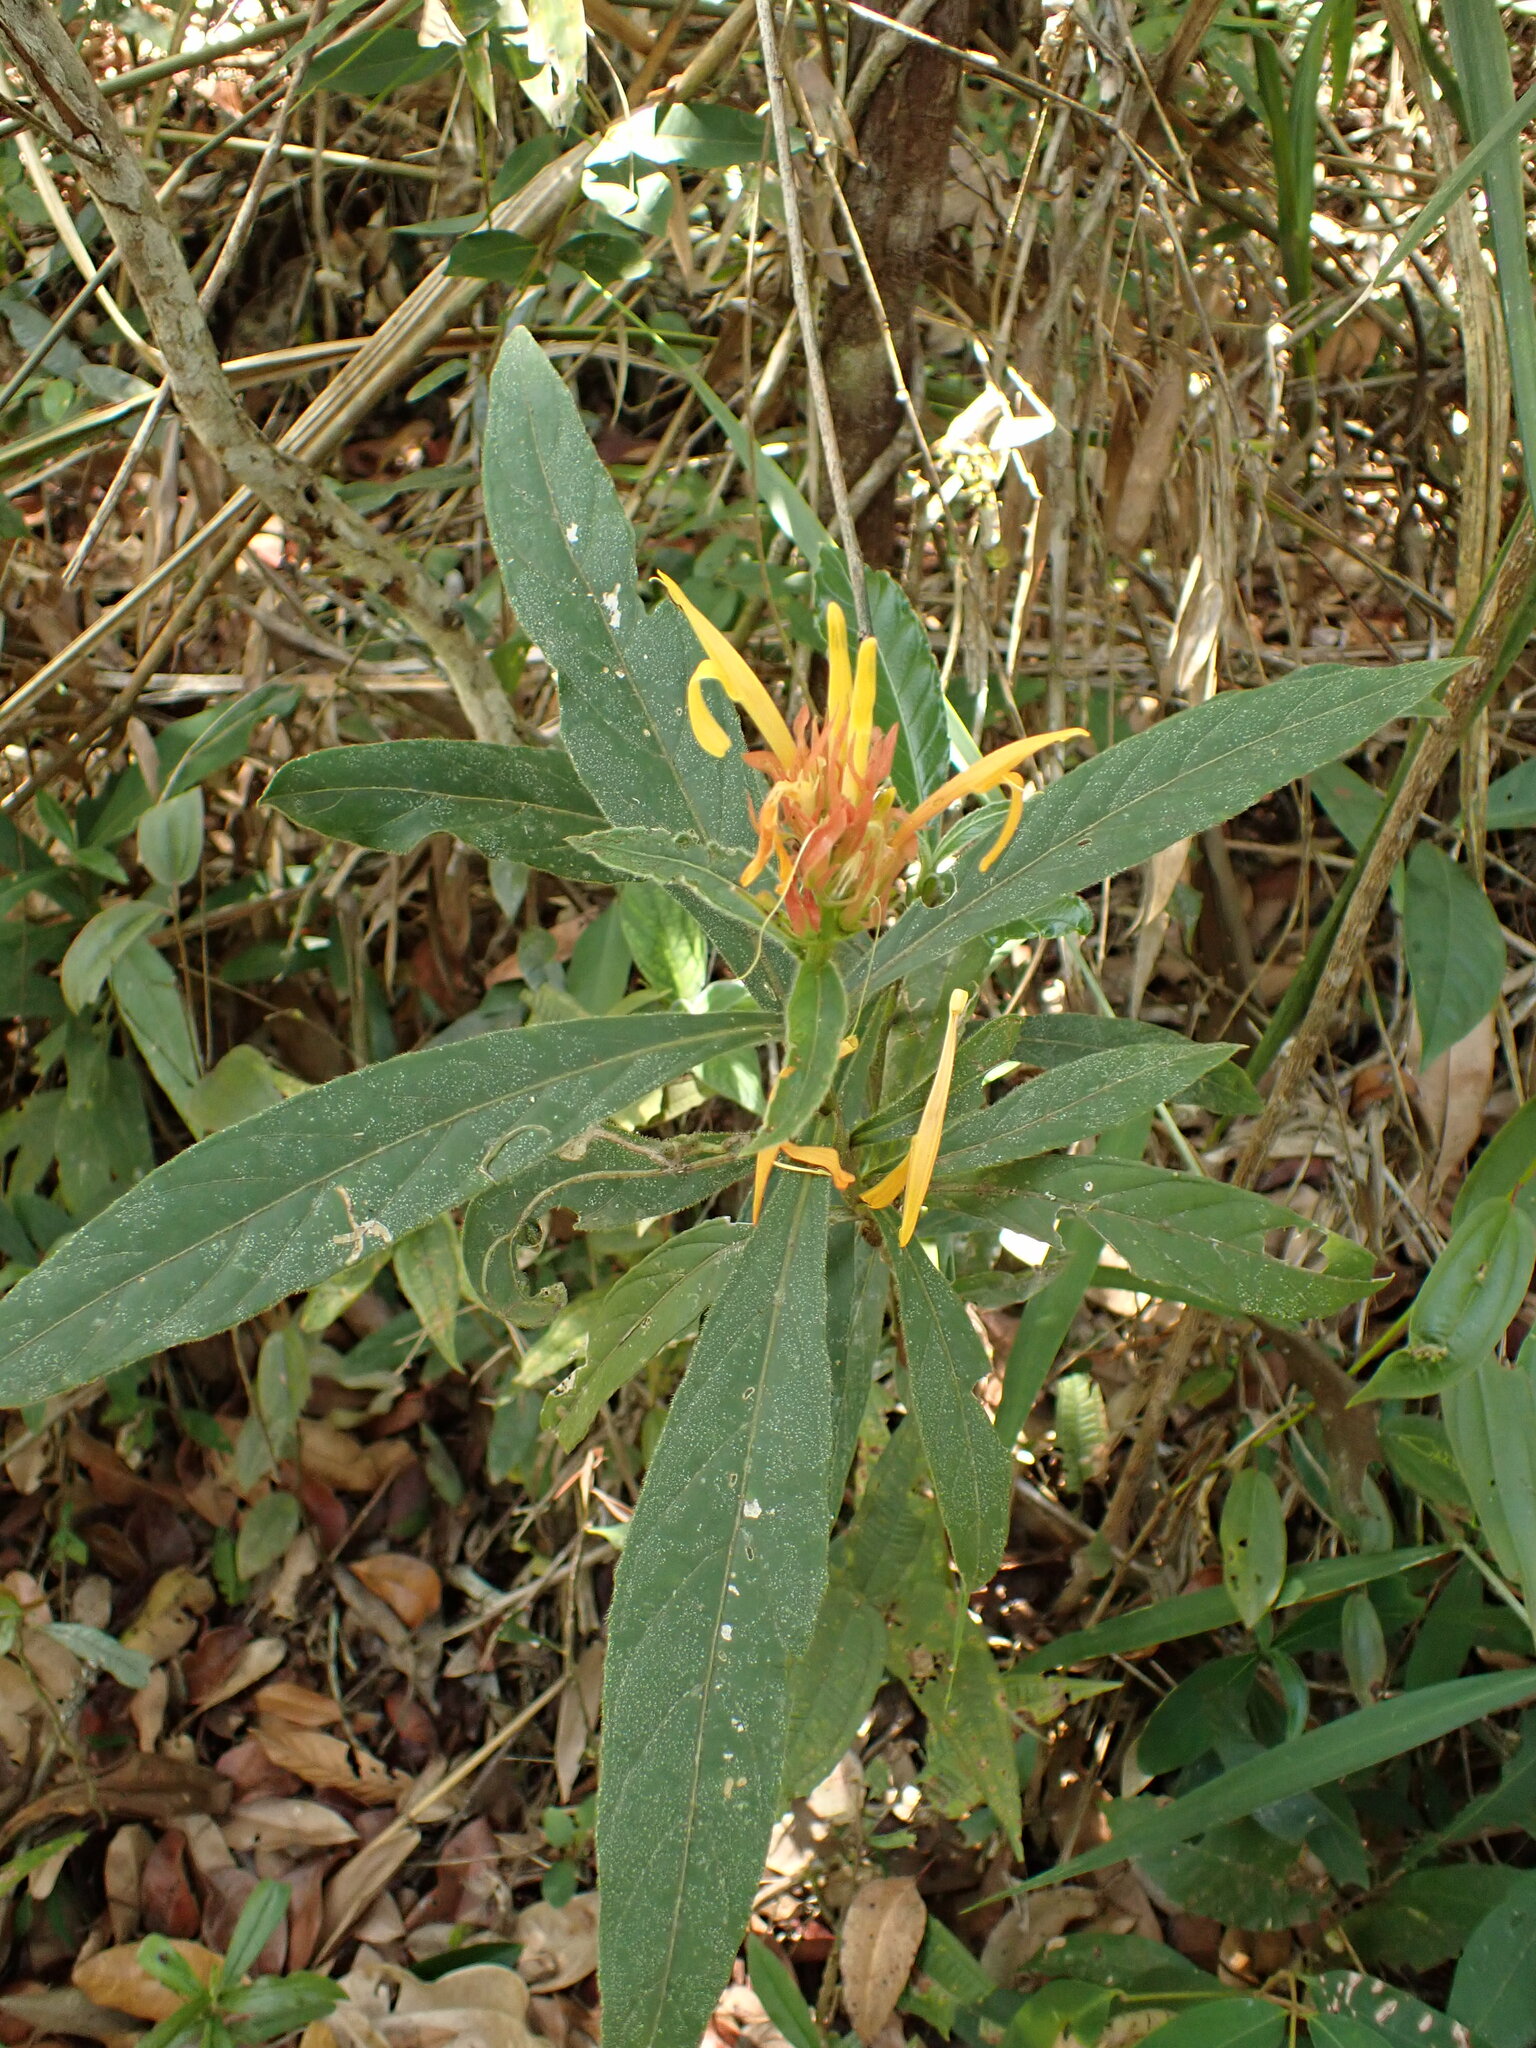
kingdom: Plantae
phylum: Tracheophyta
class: Magnoliopsida
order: Lamiales
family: Acanthaceae
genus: Justicia
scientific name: Justicia riparia
